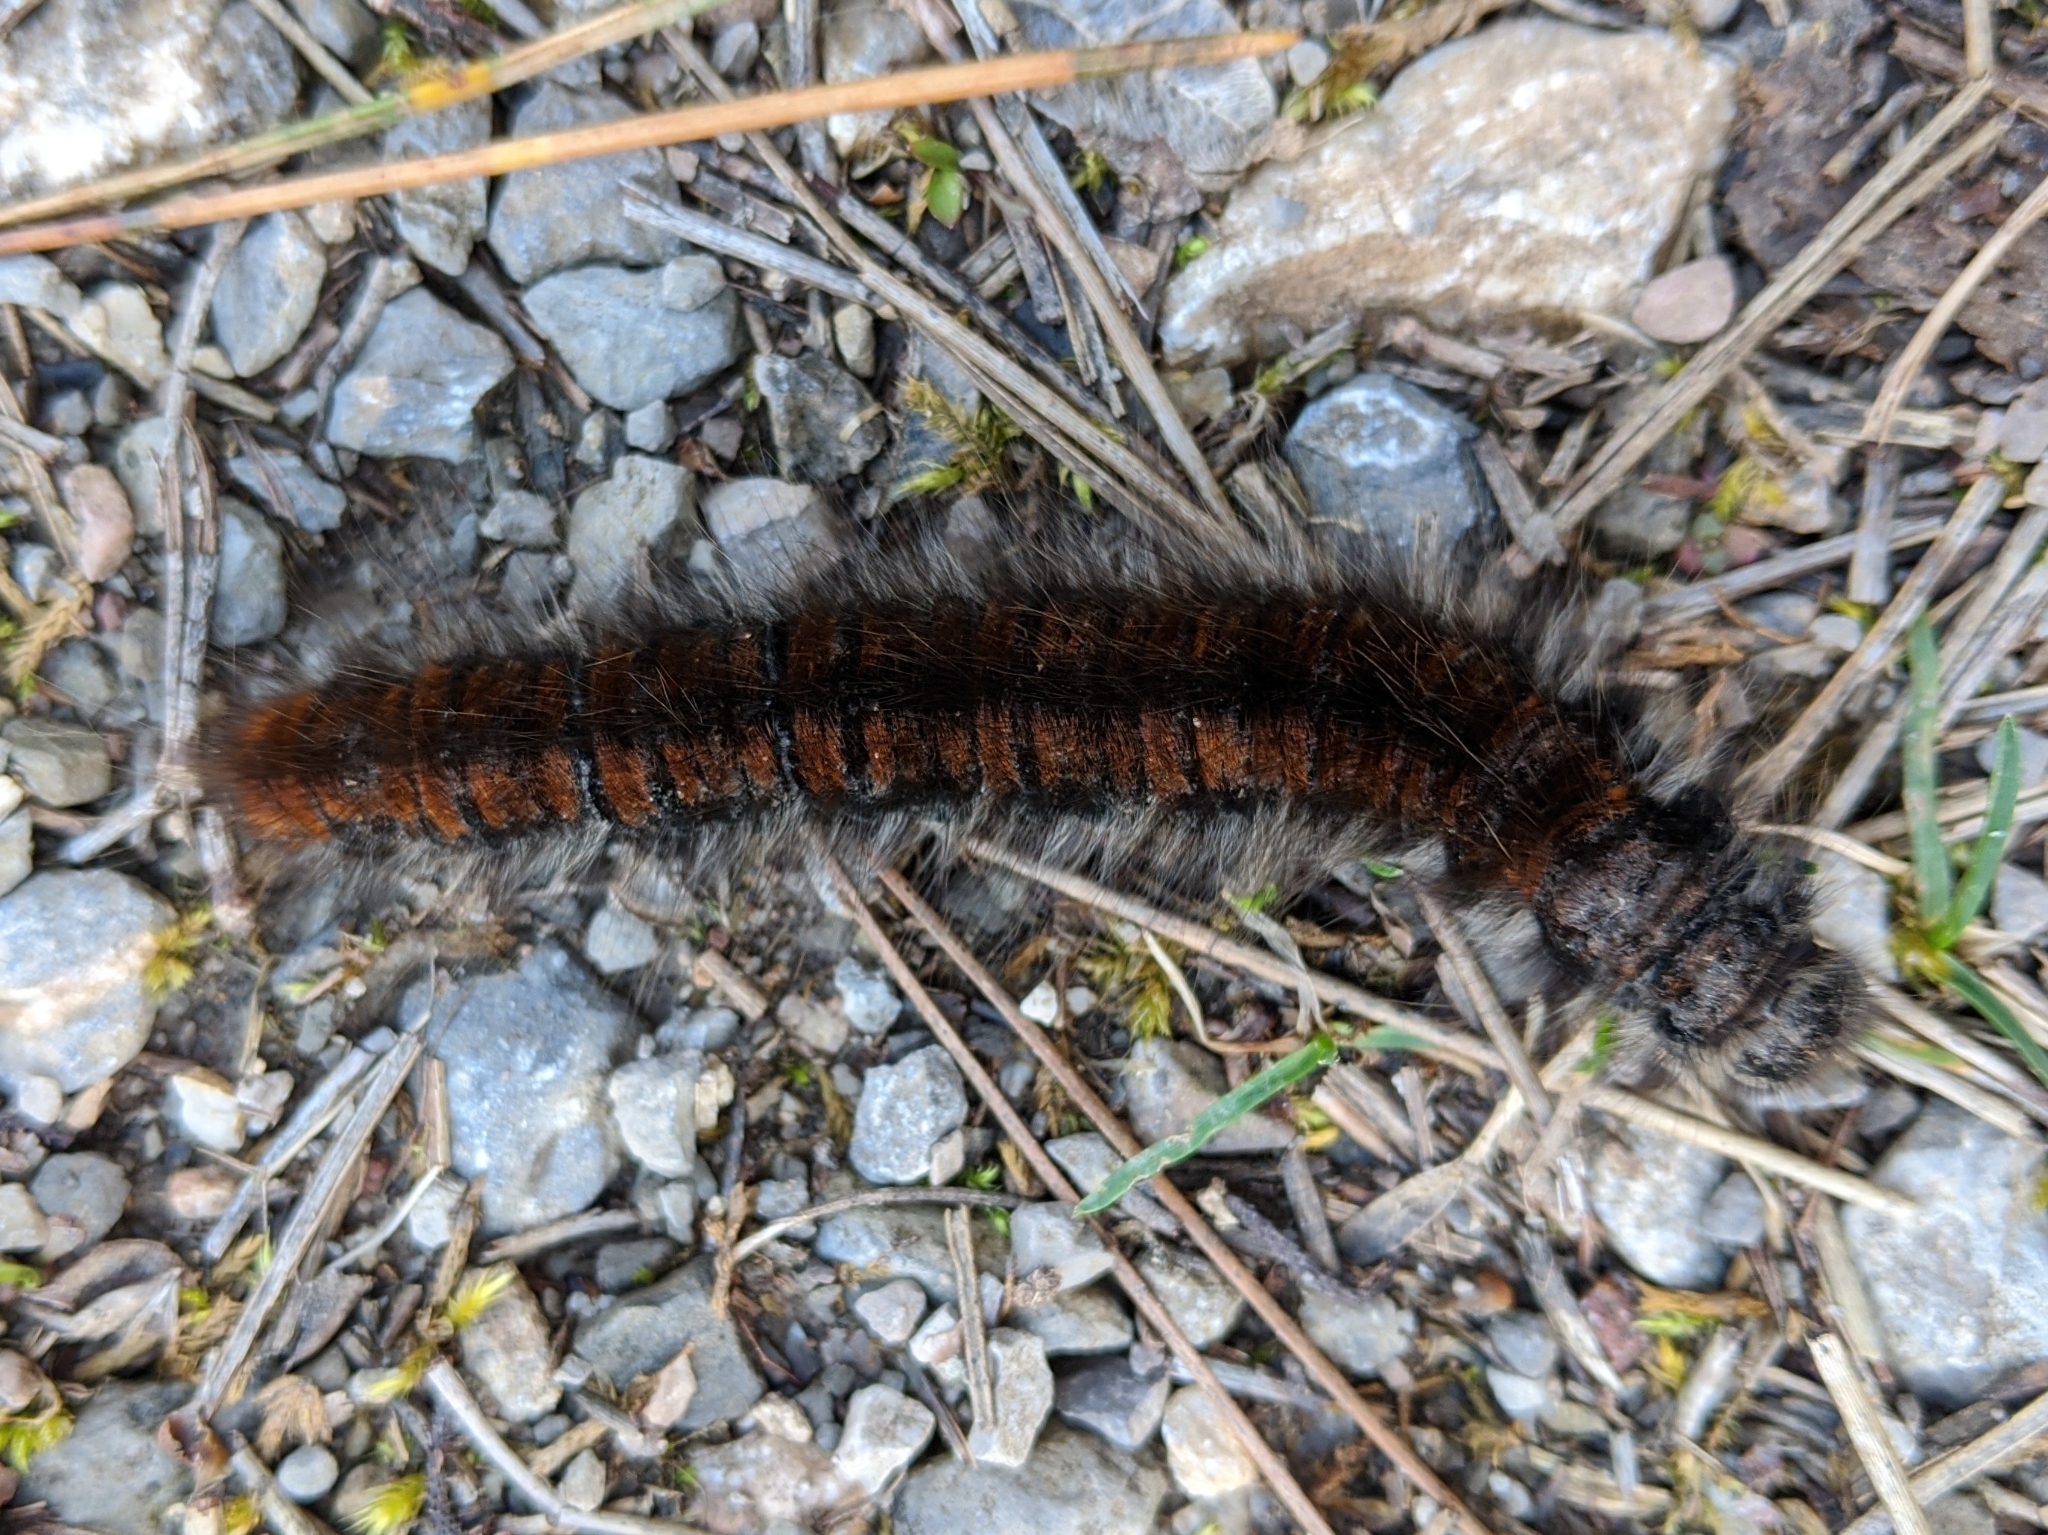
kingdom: Animalia
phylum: Arthropoda
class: Insecta
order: Lepidoptera
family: Lasiocampidae
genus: Macrothylacia
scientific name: Macrothylacia rubi
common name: Fox moth
